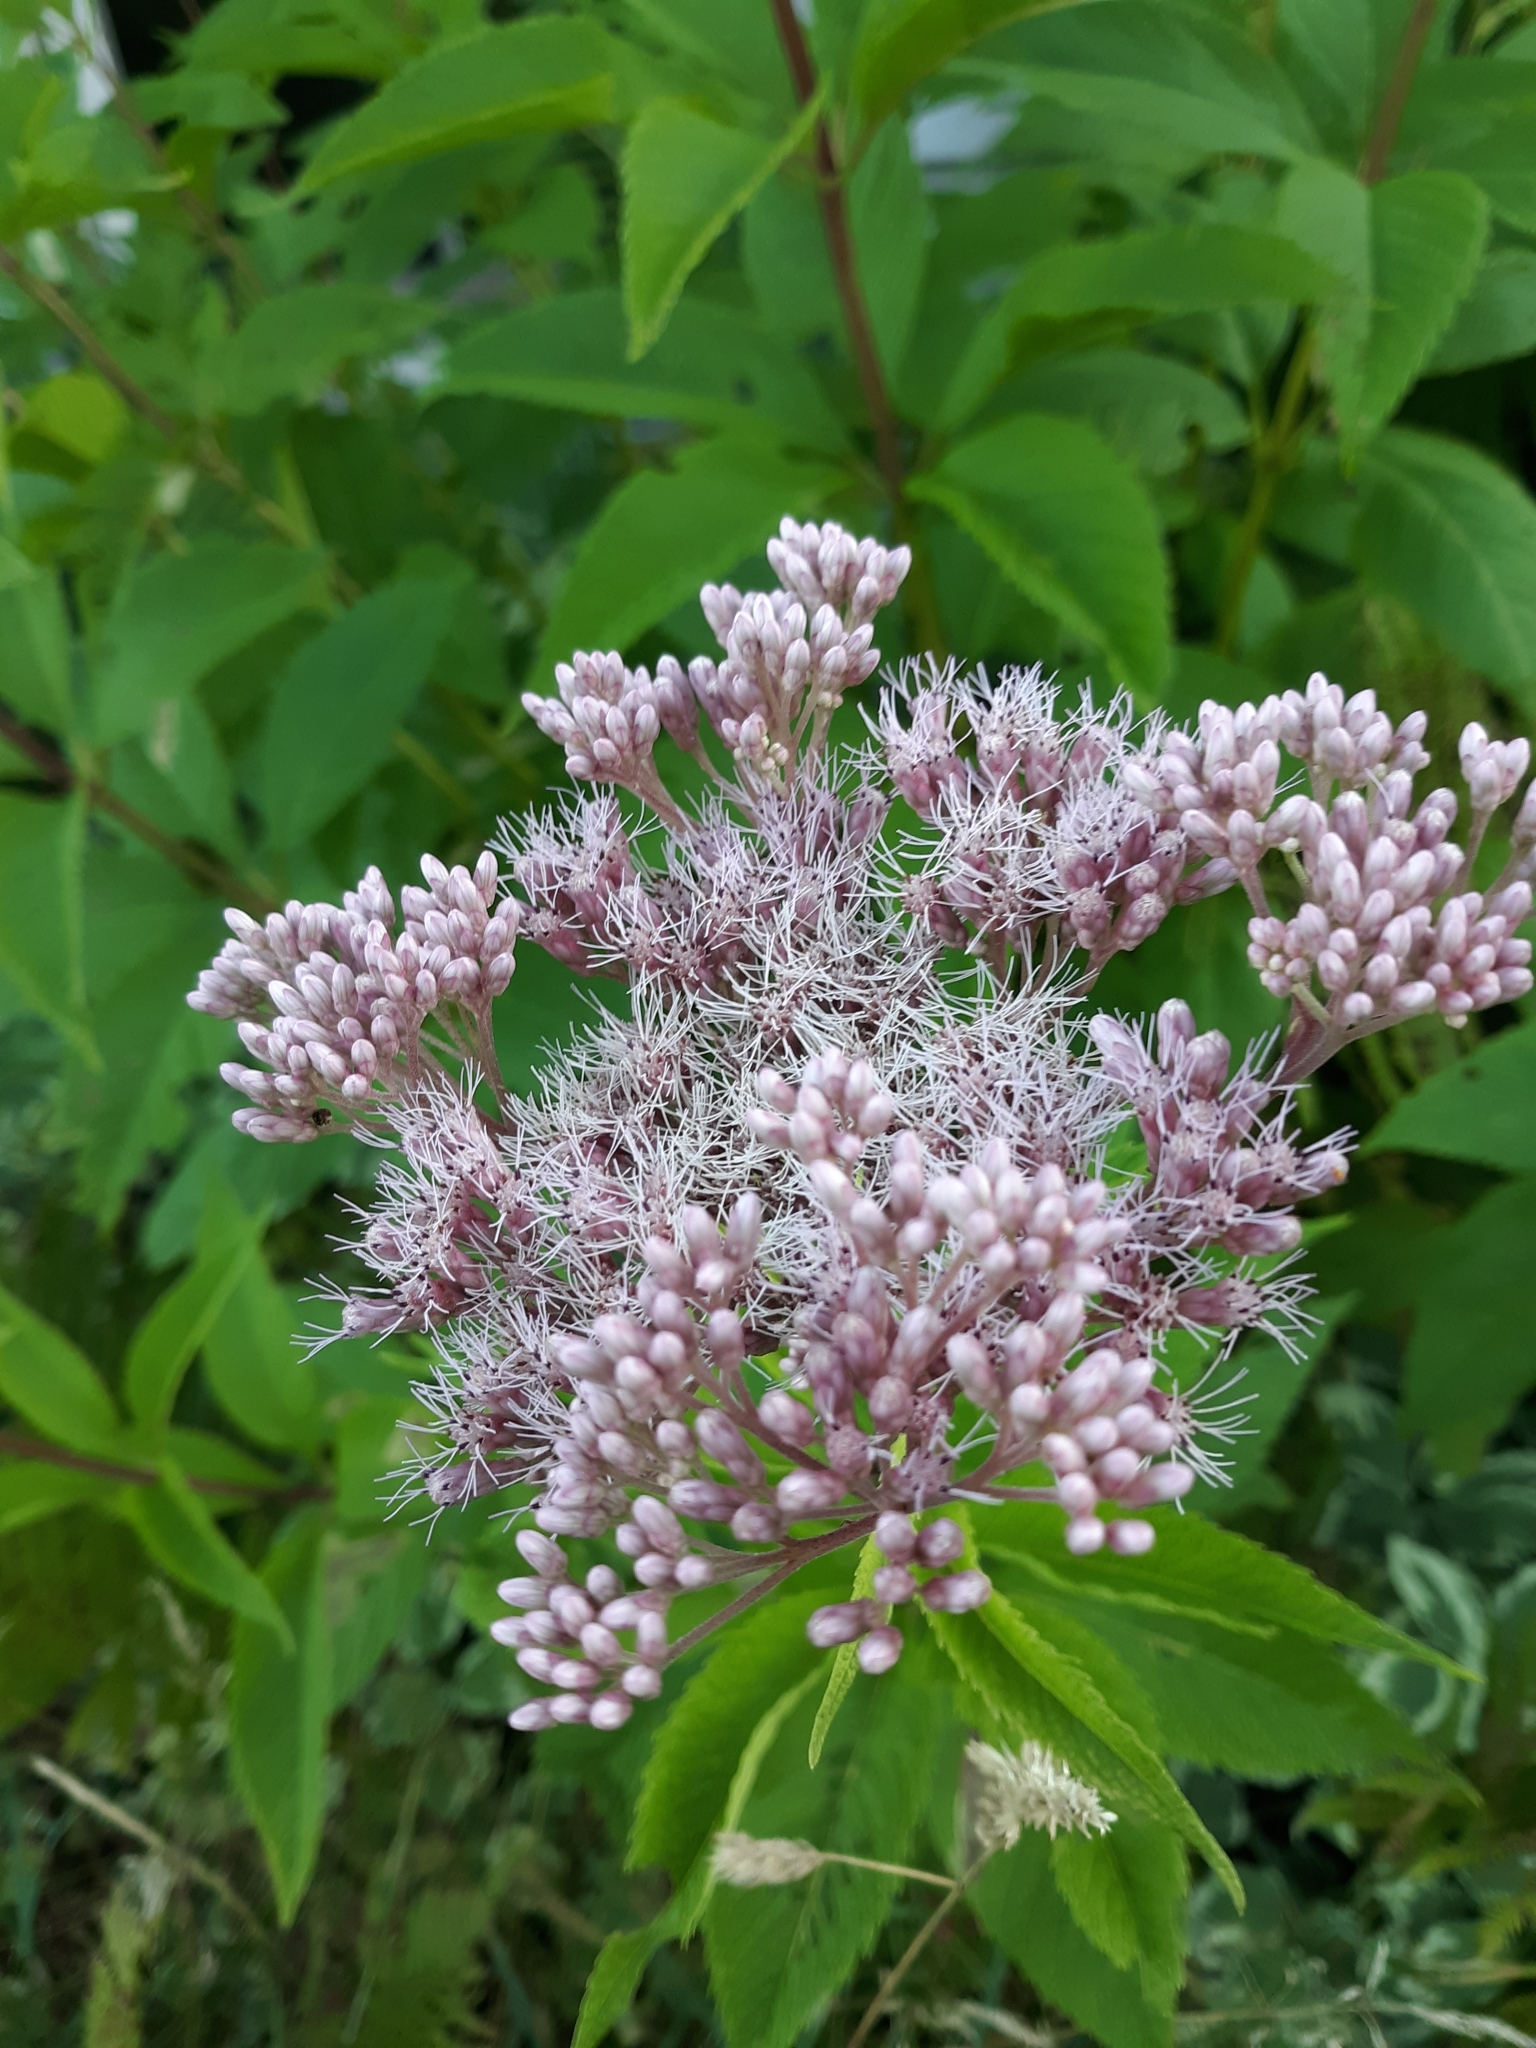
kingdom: Plantae
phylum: Tracheophyta
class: Magnoliopsida
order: Asterales
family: Asteraceae
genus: Eutrochium
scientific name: Eutrochium maculatum
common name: Spotted joe pye weed
